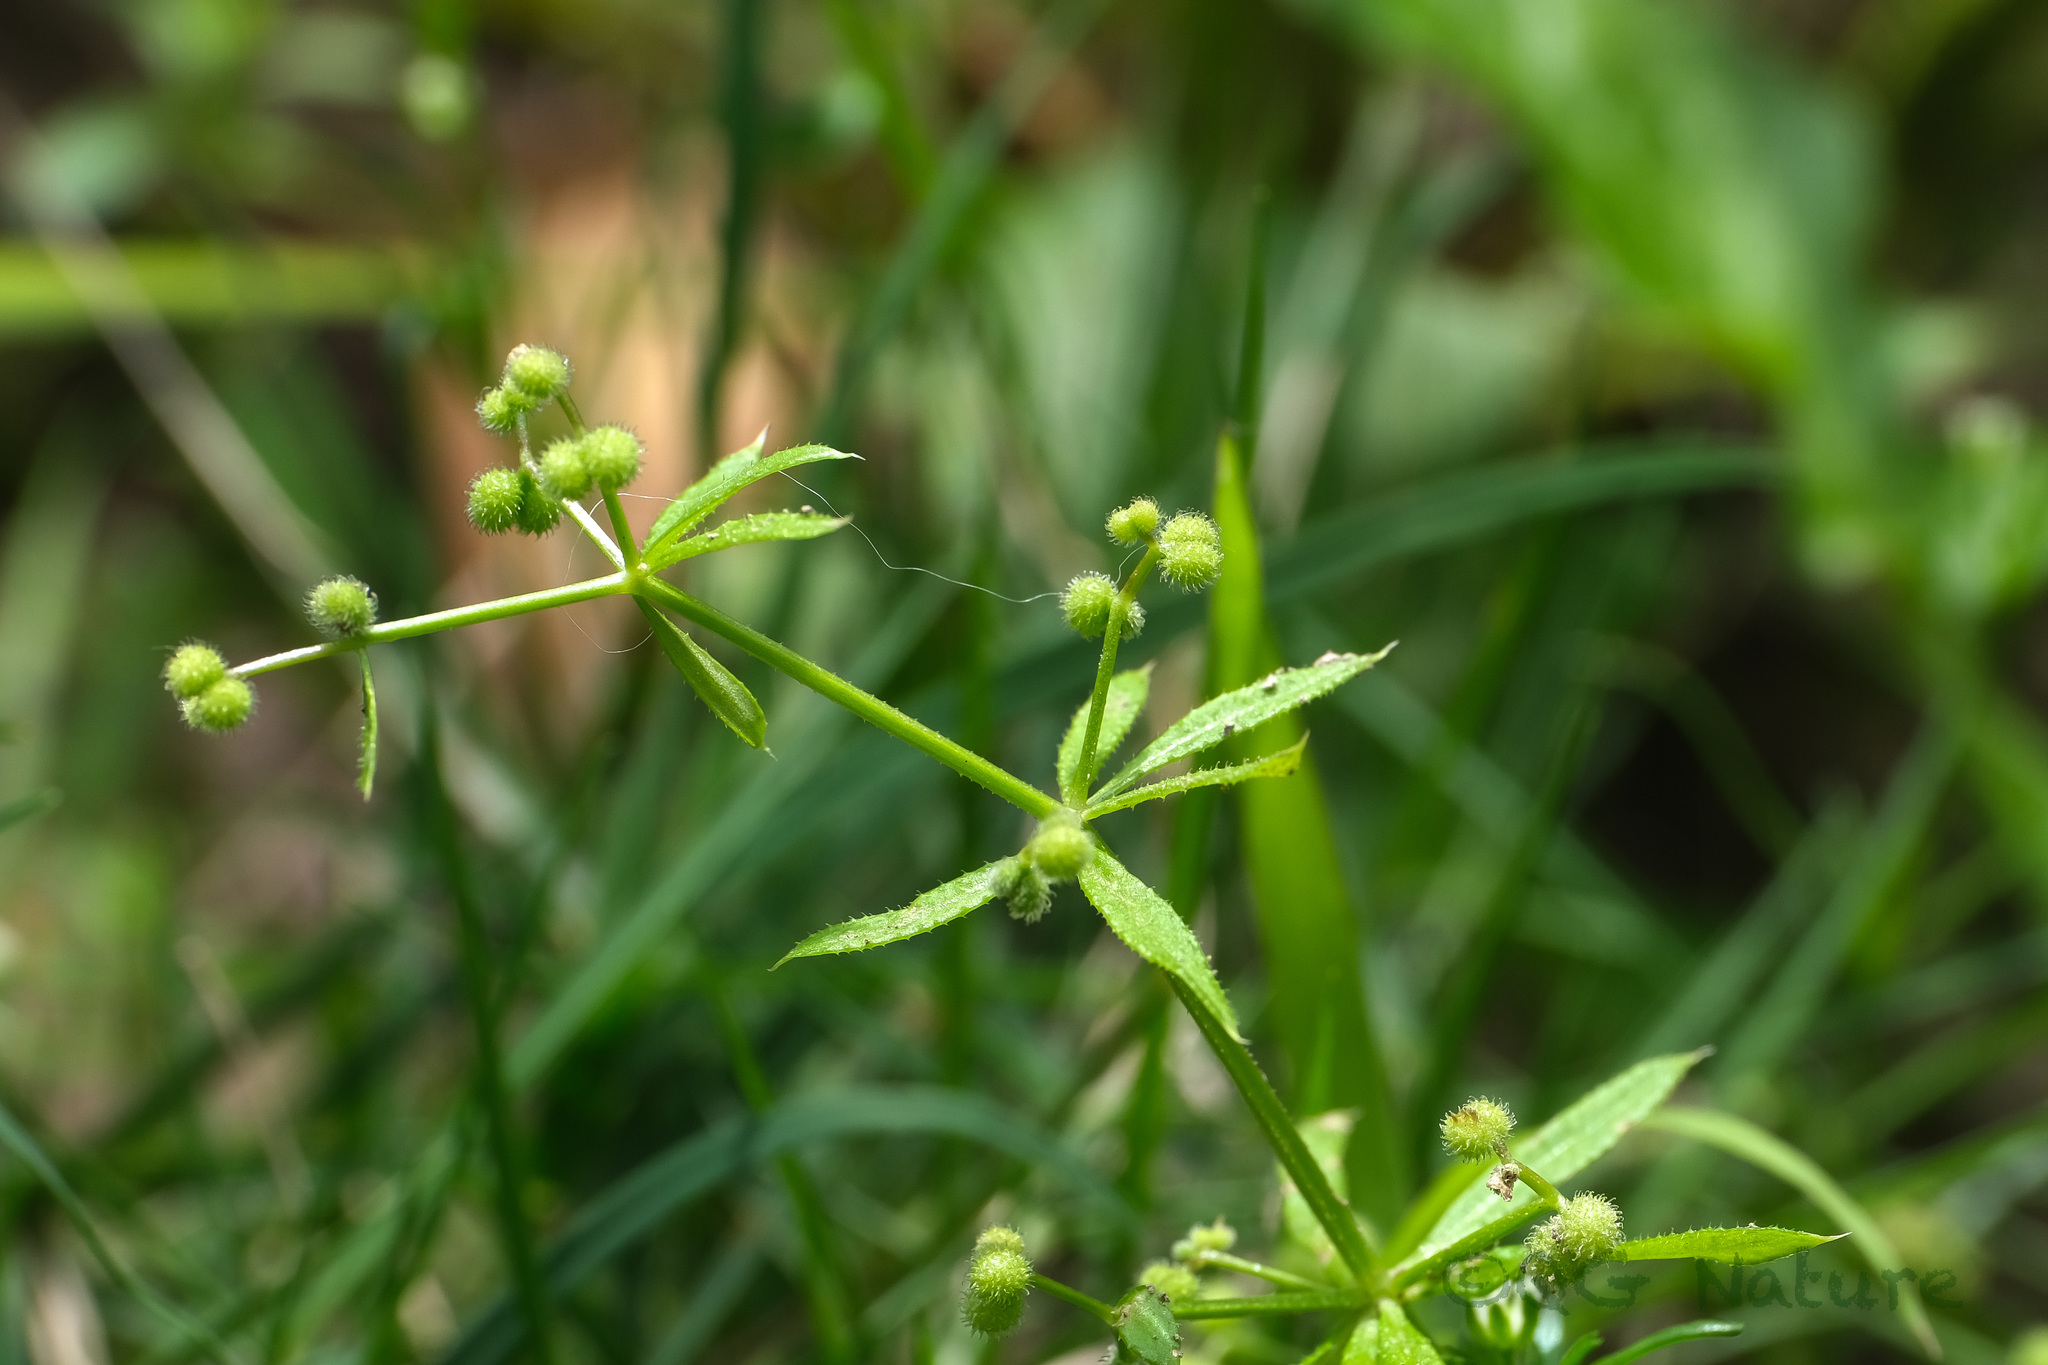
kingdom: Plantae
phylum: Tracheophyta
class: Magnoliopsida
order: Gentianales
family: Rubiaceae
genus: Galium
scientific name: Galium spurium
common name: False cleavers
